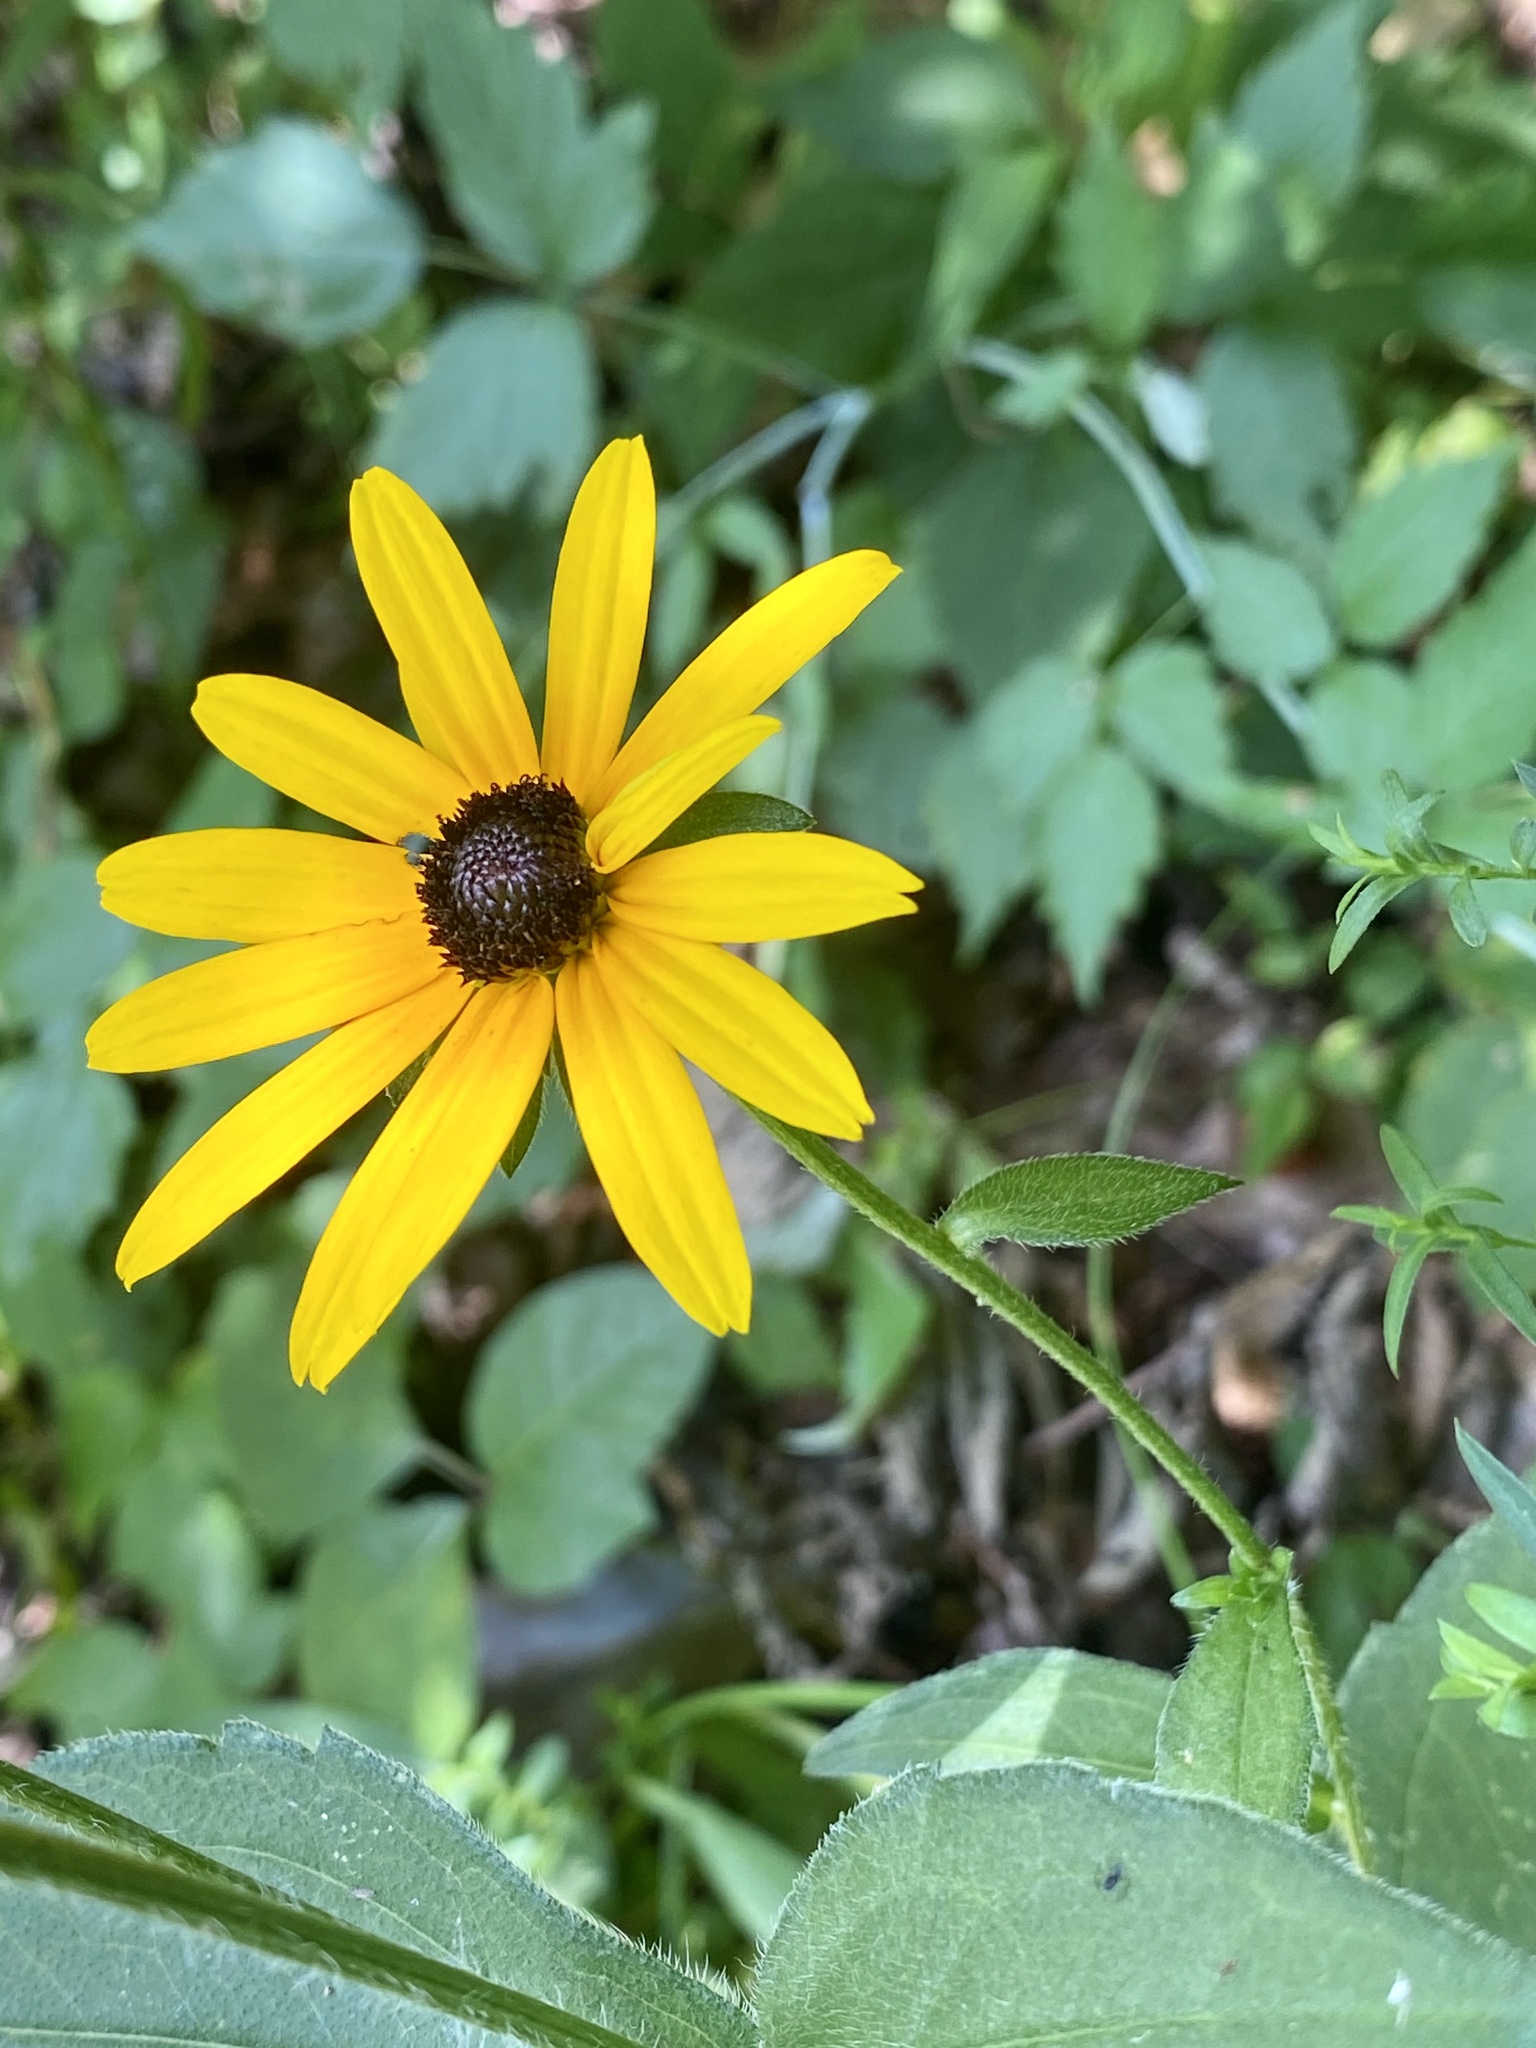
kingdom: Plantae
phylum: Tracheophyta
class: Magnoliopsida
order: Asterales
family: Asteraceae
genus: Rudbeckia
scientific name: Rudbeckia hirta
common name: Black-eyed-susan
